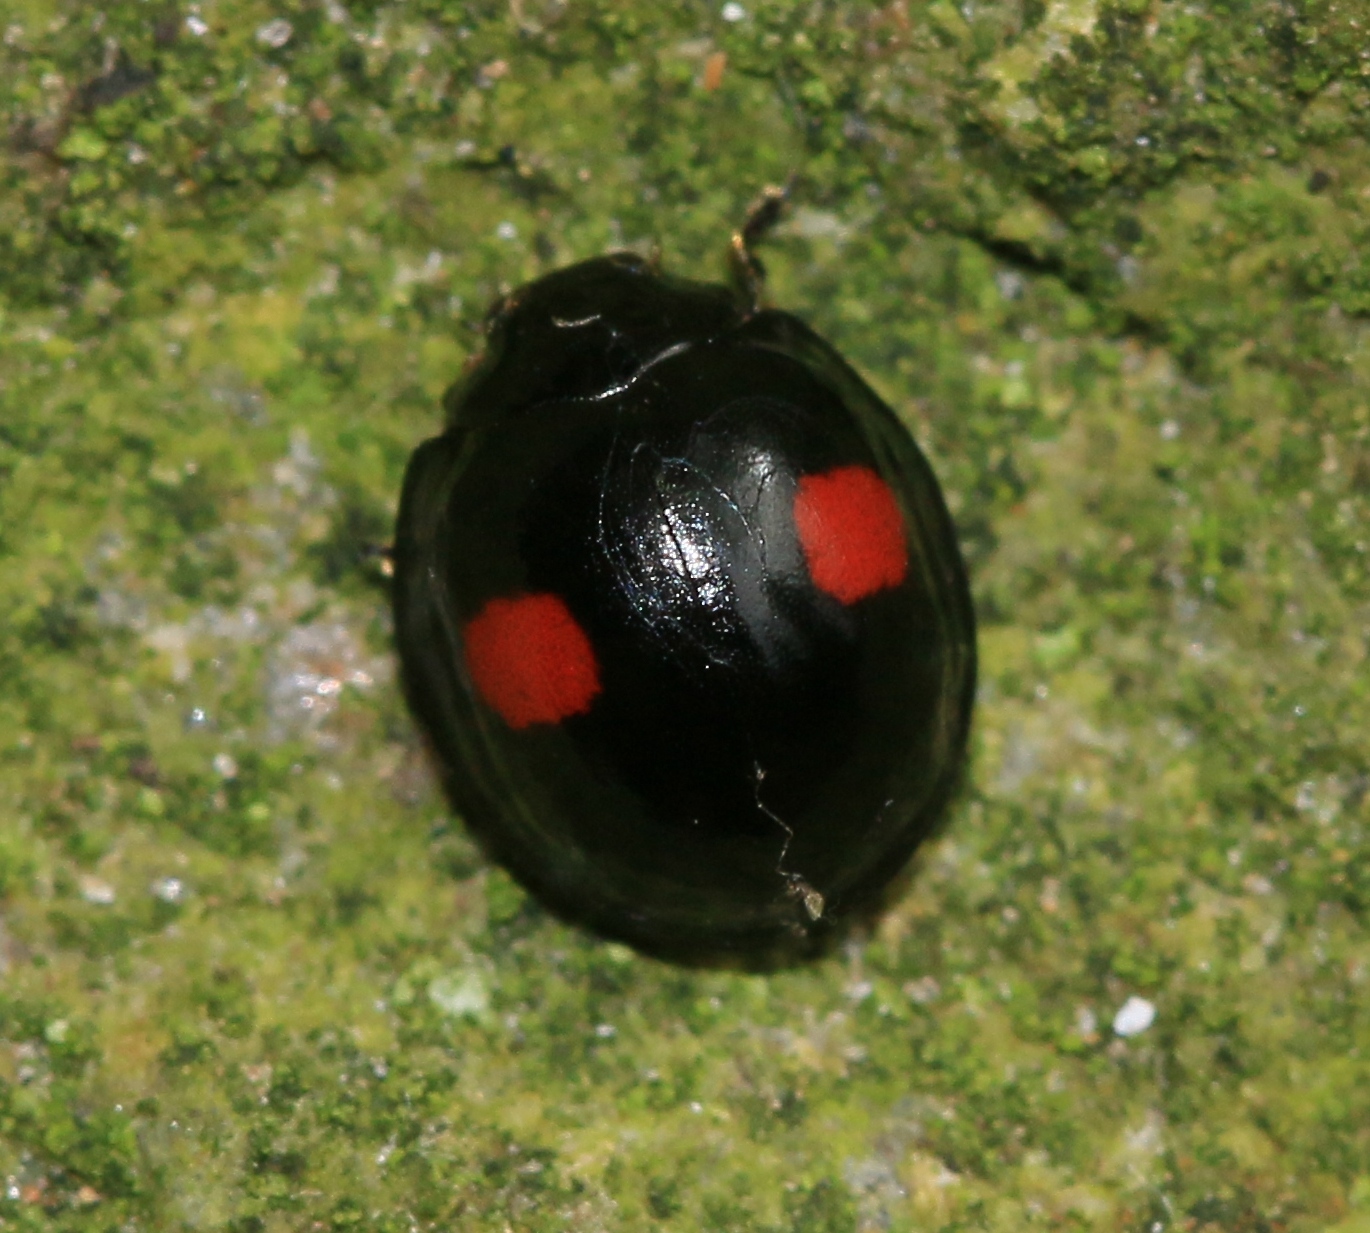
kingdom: Animalia
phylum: Arthropoda
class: Insecta
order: Coleoptera
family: Coccinellidae
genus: Chilocorus
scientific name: Chilocorus renipustulatus
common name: Kidney-spot ladybird
